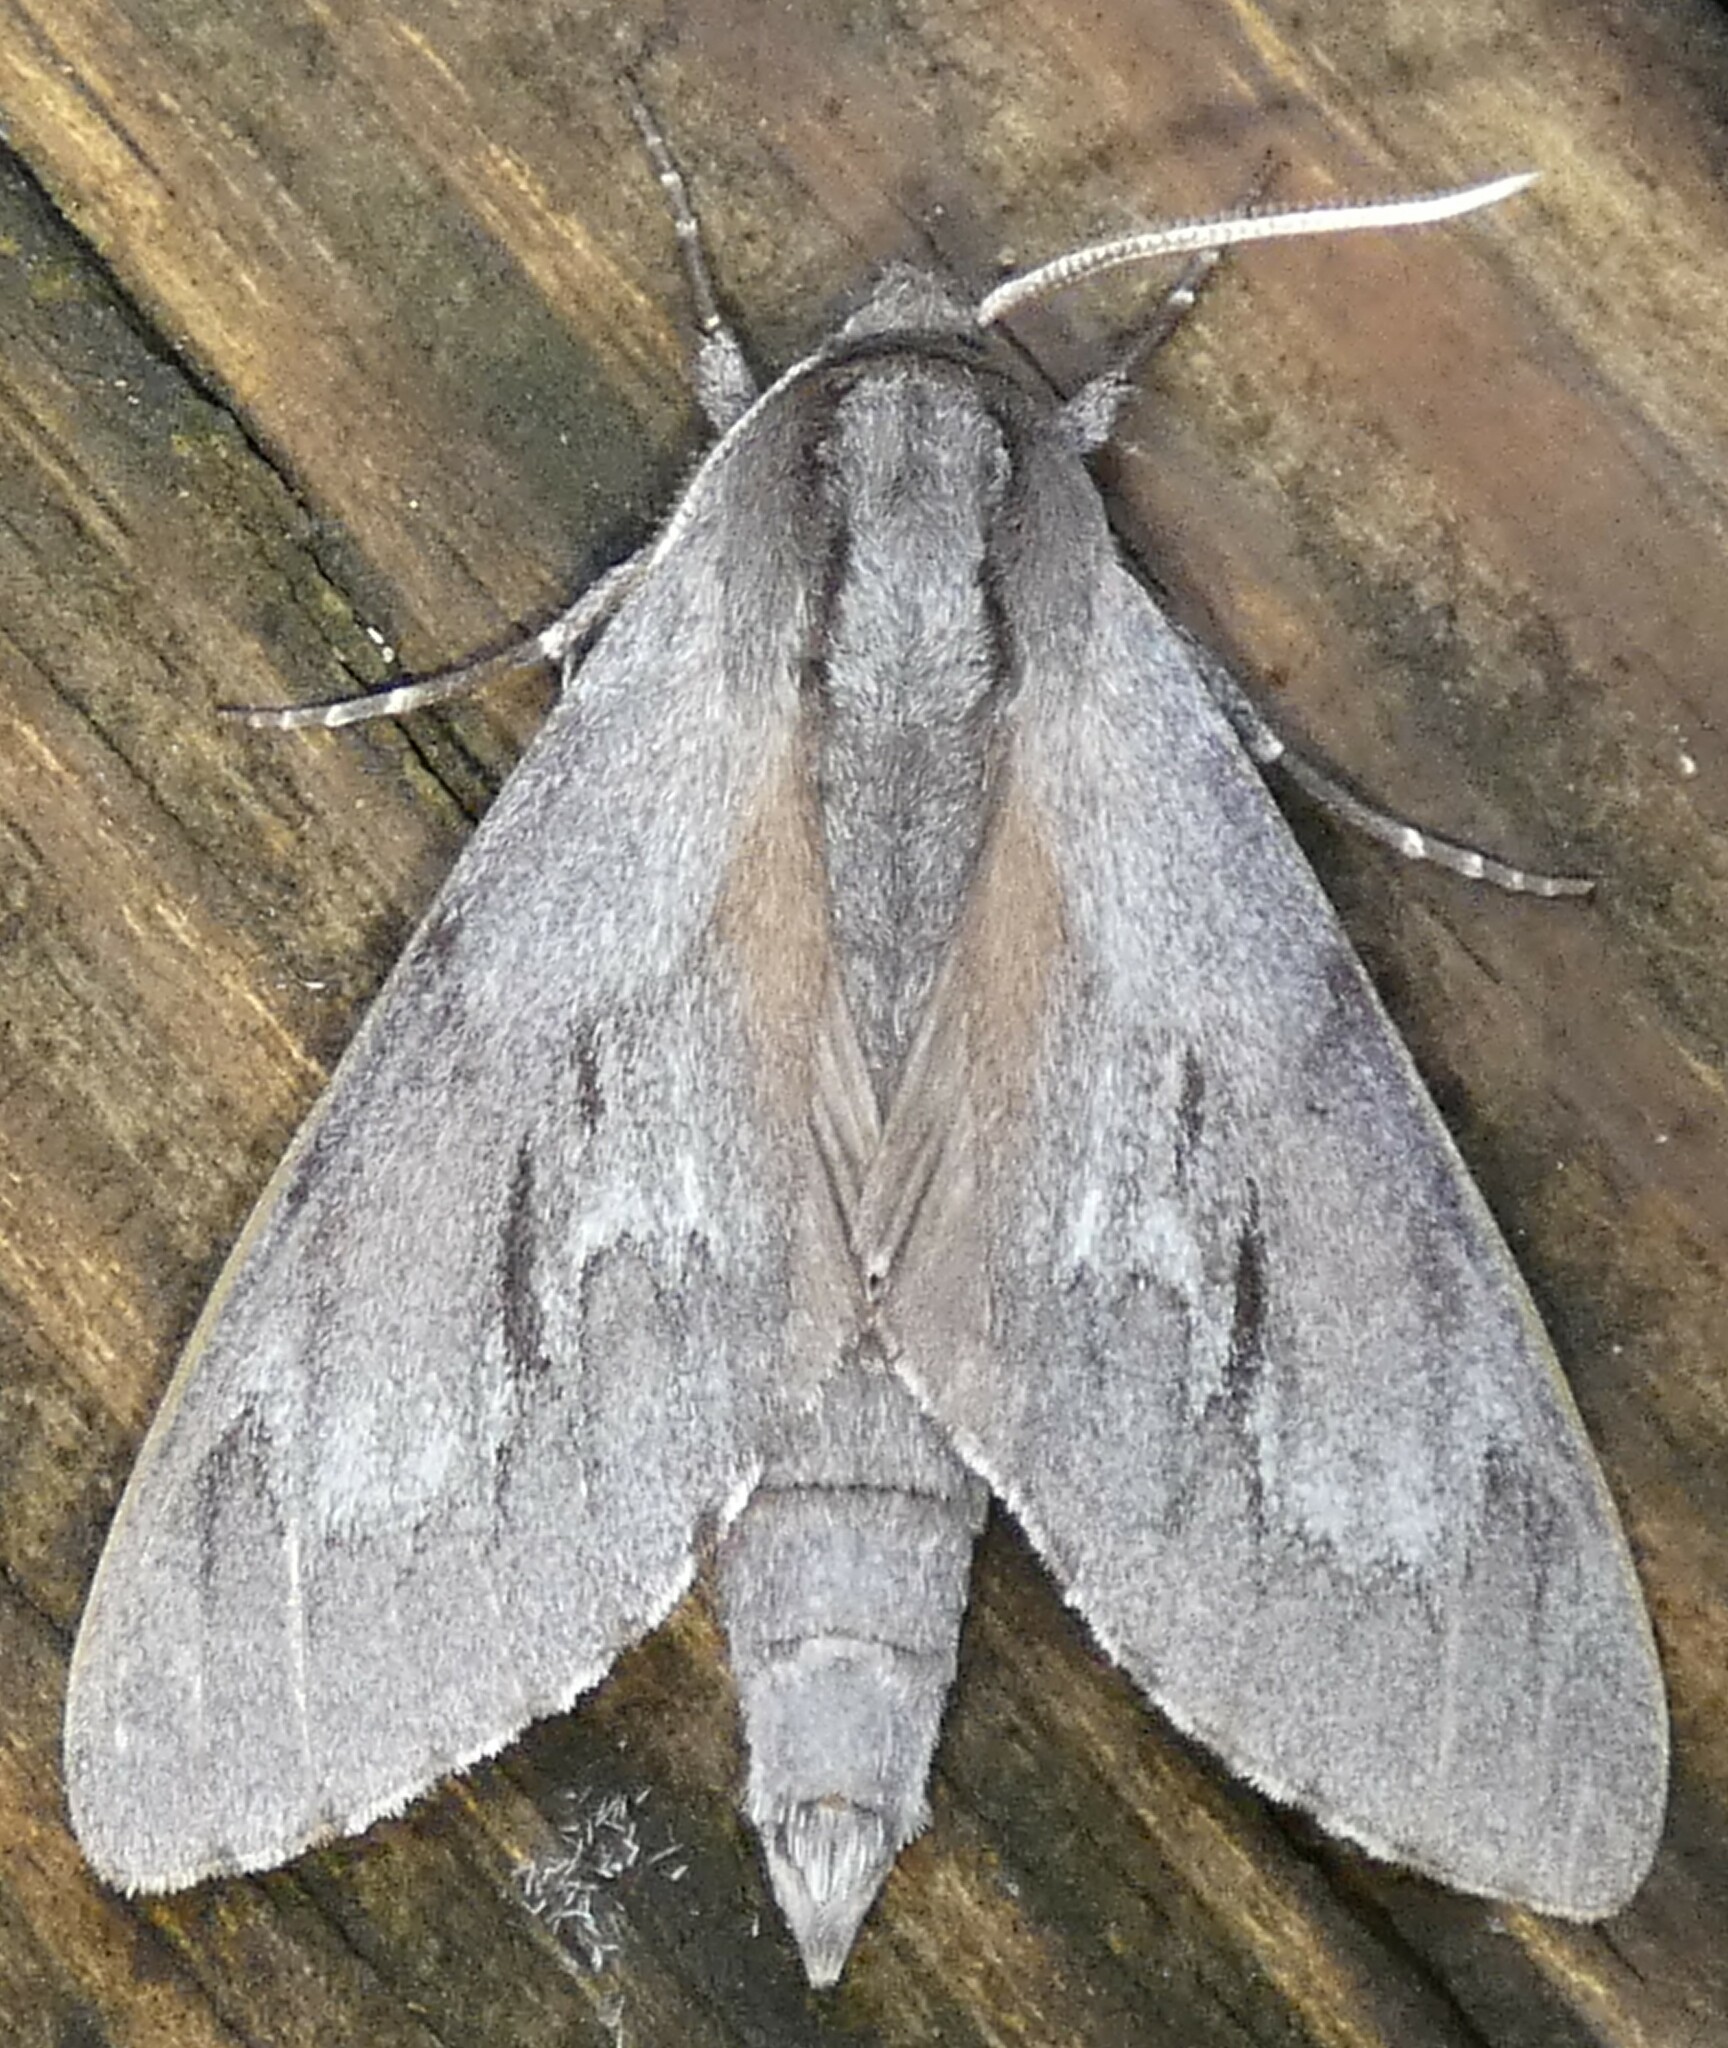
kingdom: Animalia
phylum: Arthropoda
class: Insecta
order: Lepidoptera
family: Sphingidae
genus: Lapara
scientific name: Lapara coniferarum
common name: Southern pine sphinx
